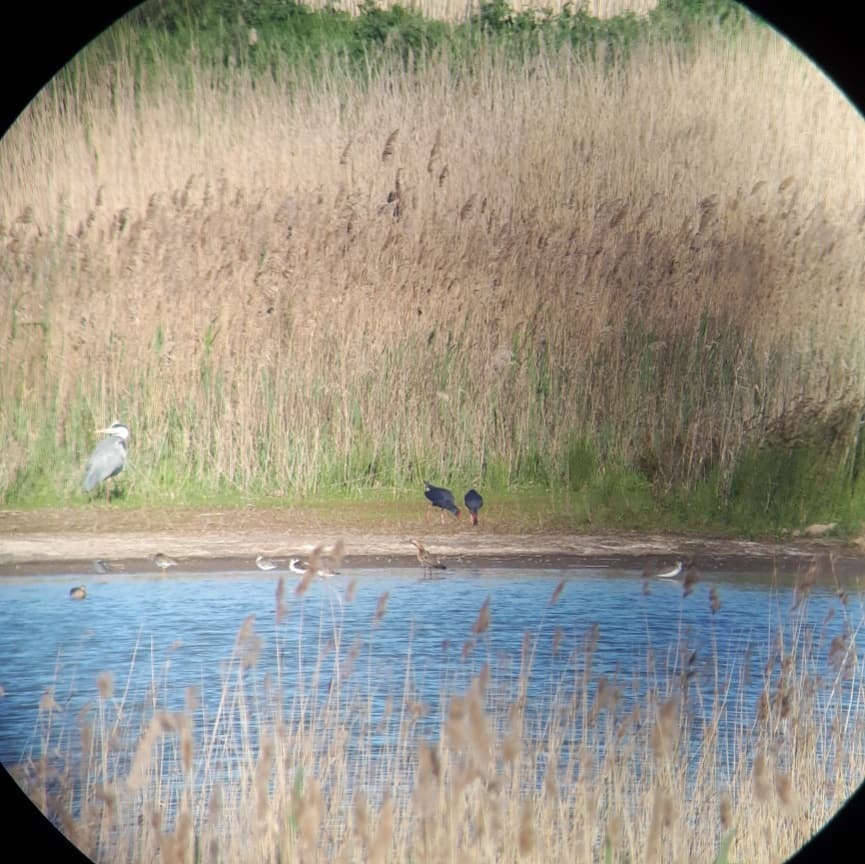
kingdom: Animalia
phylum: Chordata
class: Aves
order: Gruiformes
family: Rallidae
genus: Porphyrio
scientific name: Porphyrio porphyrio
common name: Purple swamphen
